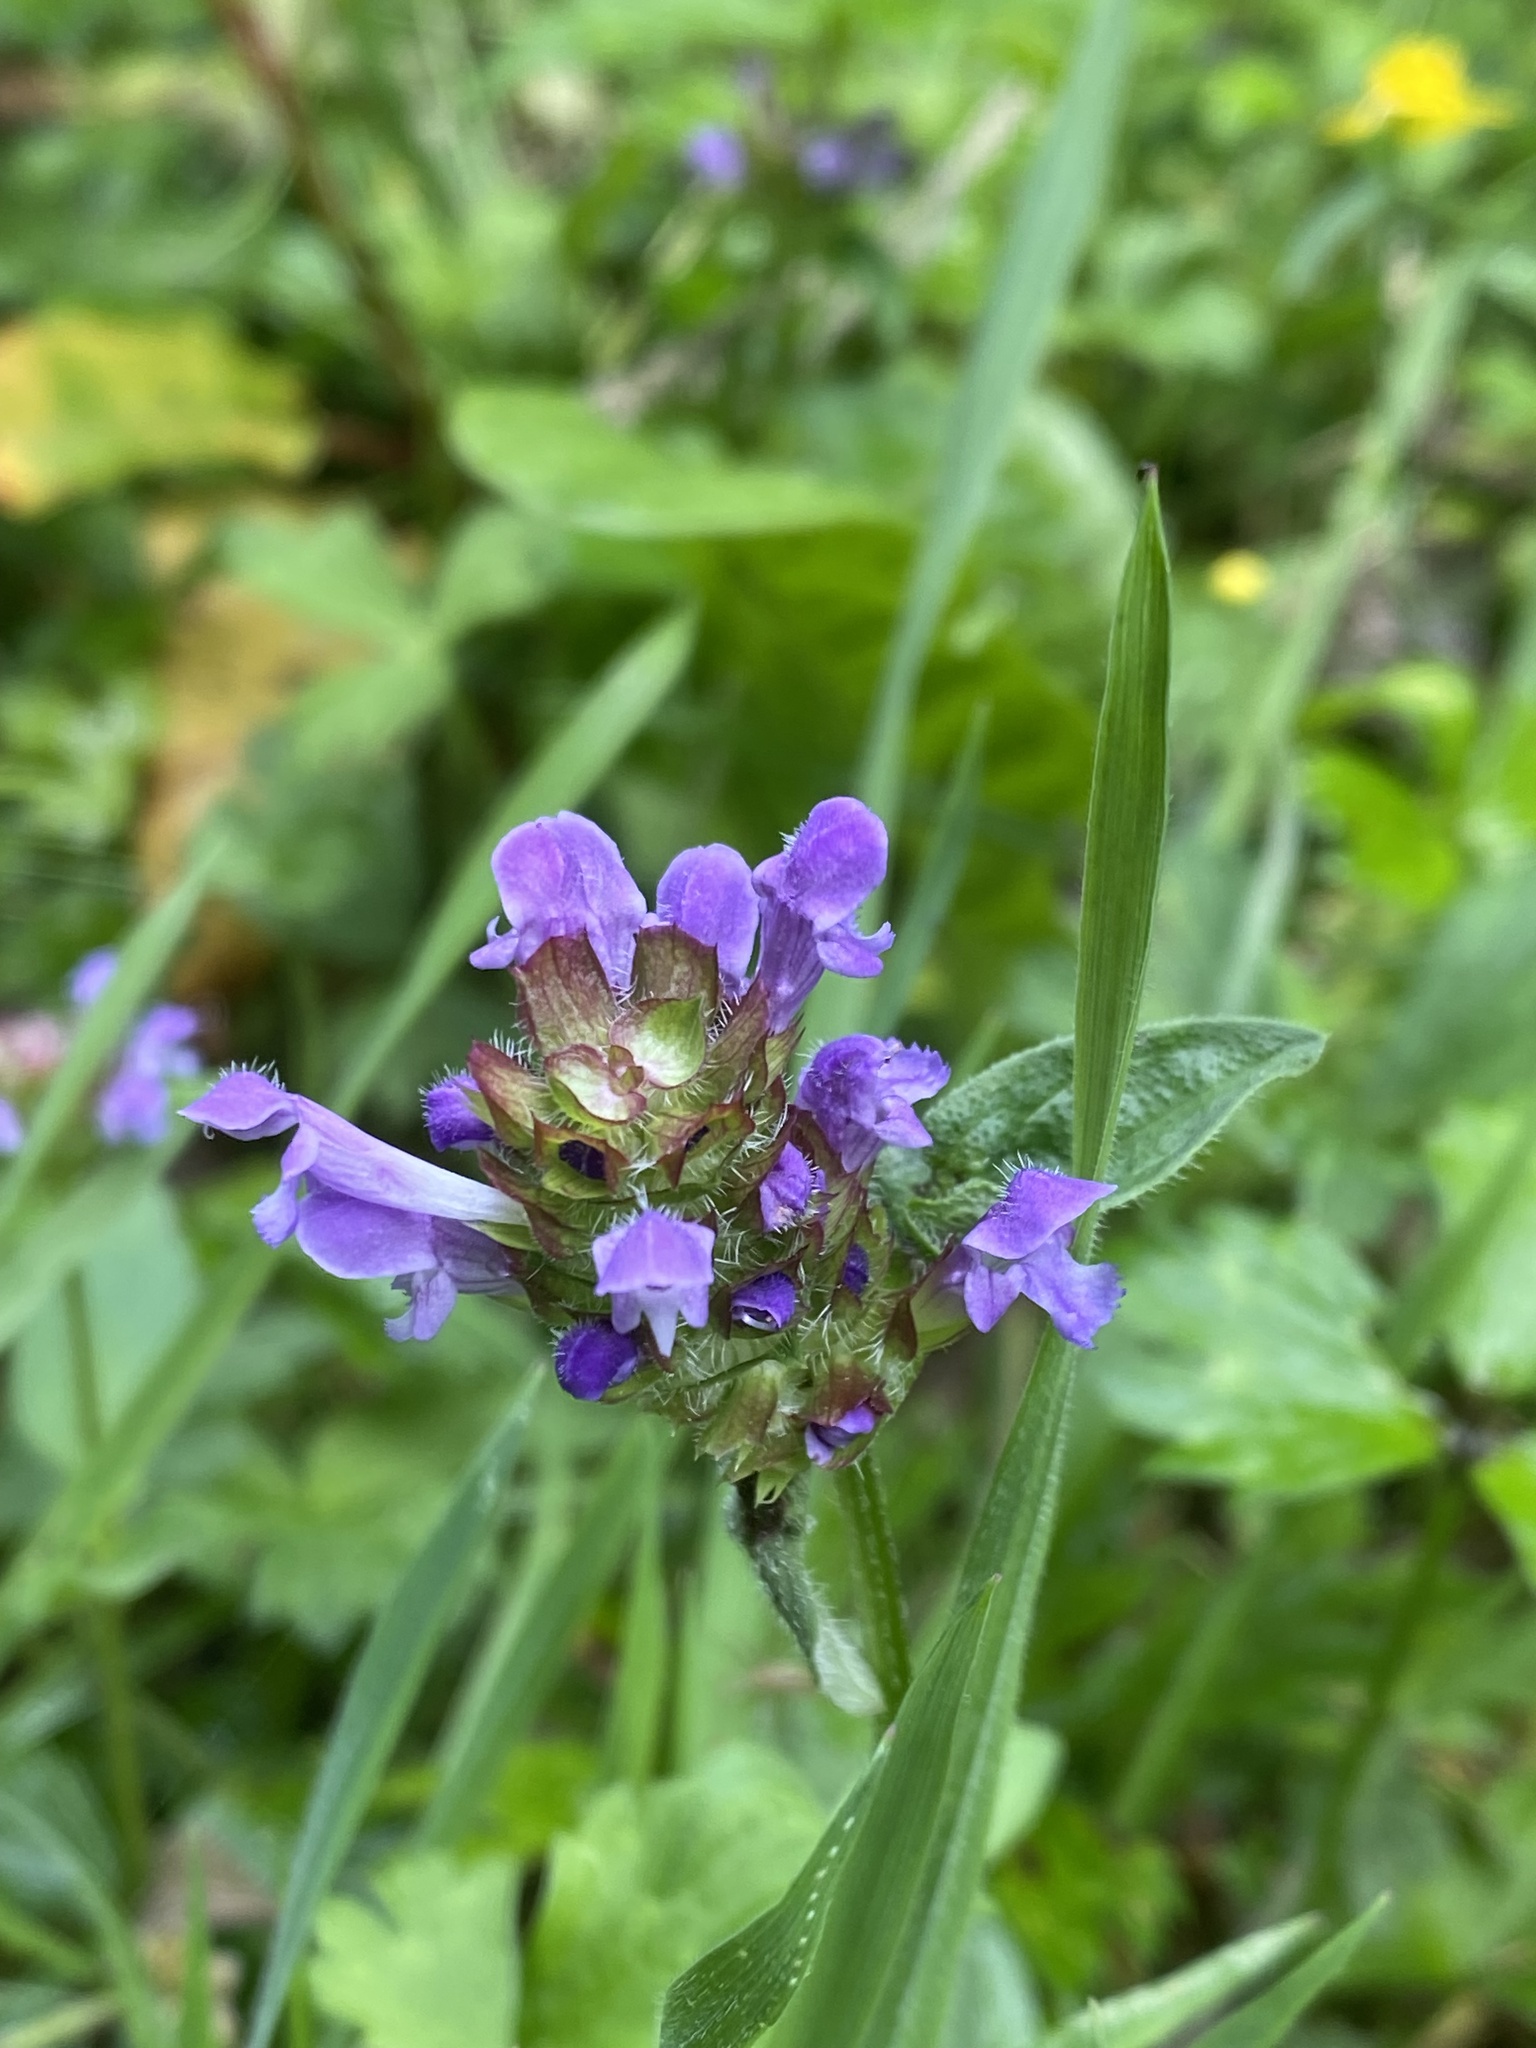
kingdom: Plantae
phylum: Tracheophyta
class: Magnoliopsida
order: Lamiales
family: Lamiaceae
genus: Prunella
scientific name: Prunella vulgaris
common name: Heal-all
